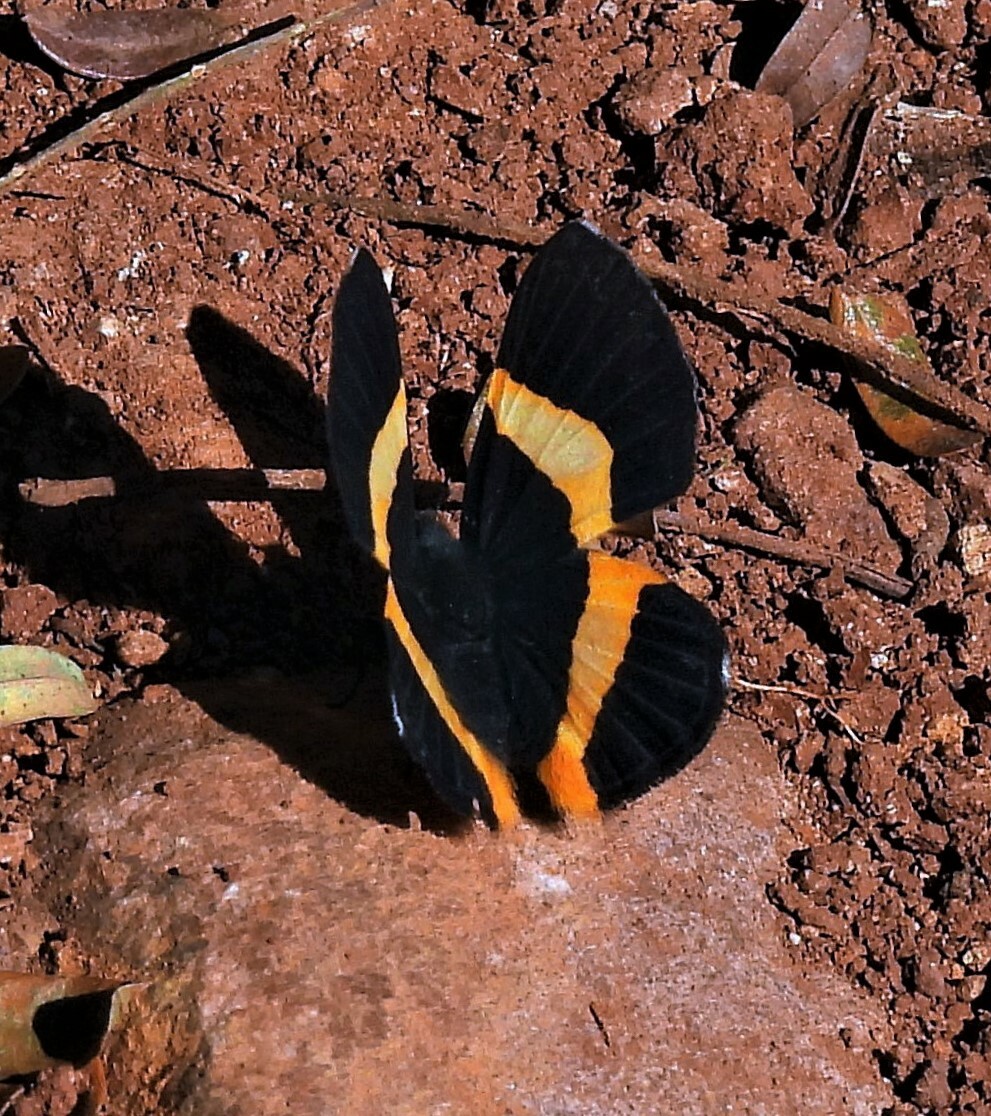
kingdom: Animalia
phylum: Arthropoda
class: Insecta
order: Lepidoptera
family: Riodinidae
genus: Notheme
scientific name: Notheme eumeus
